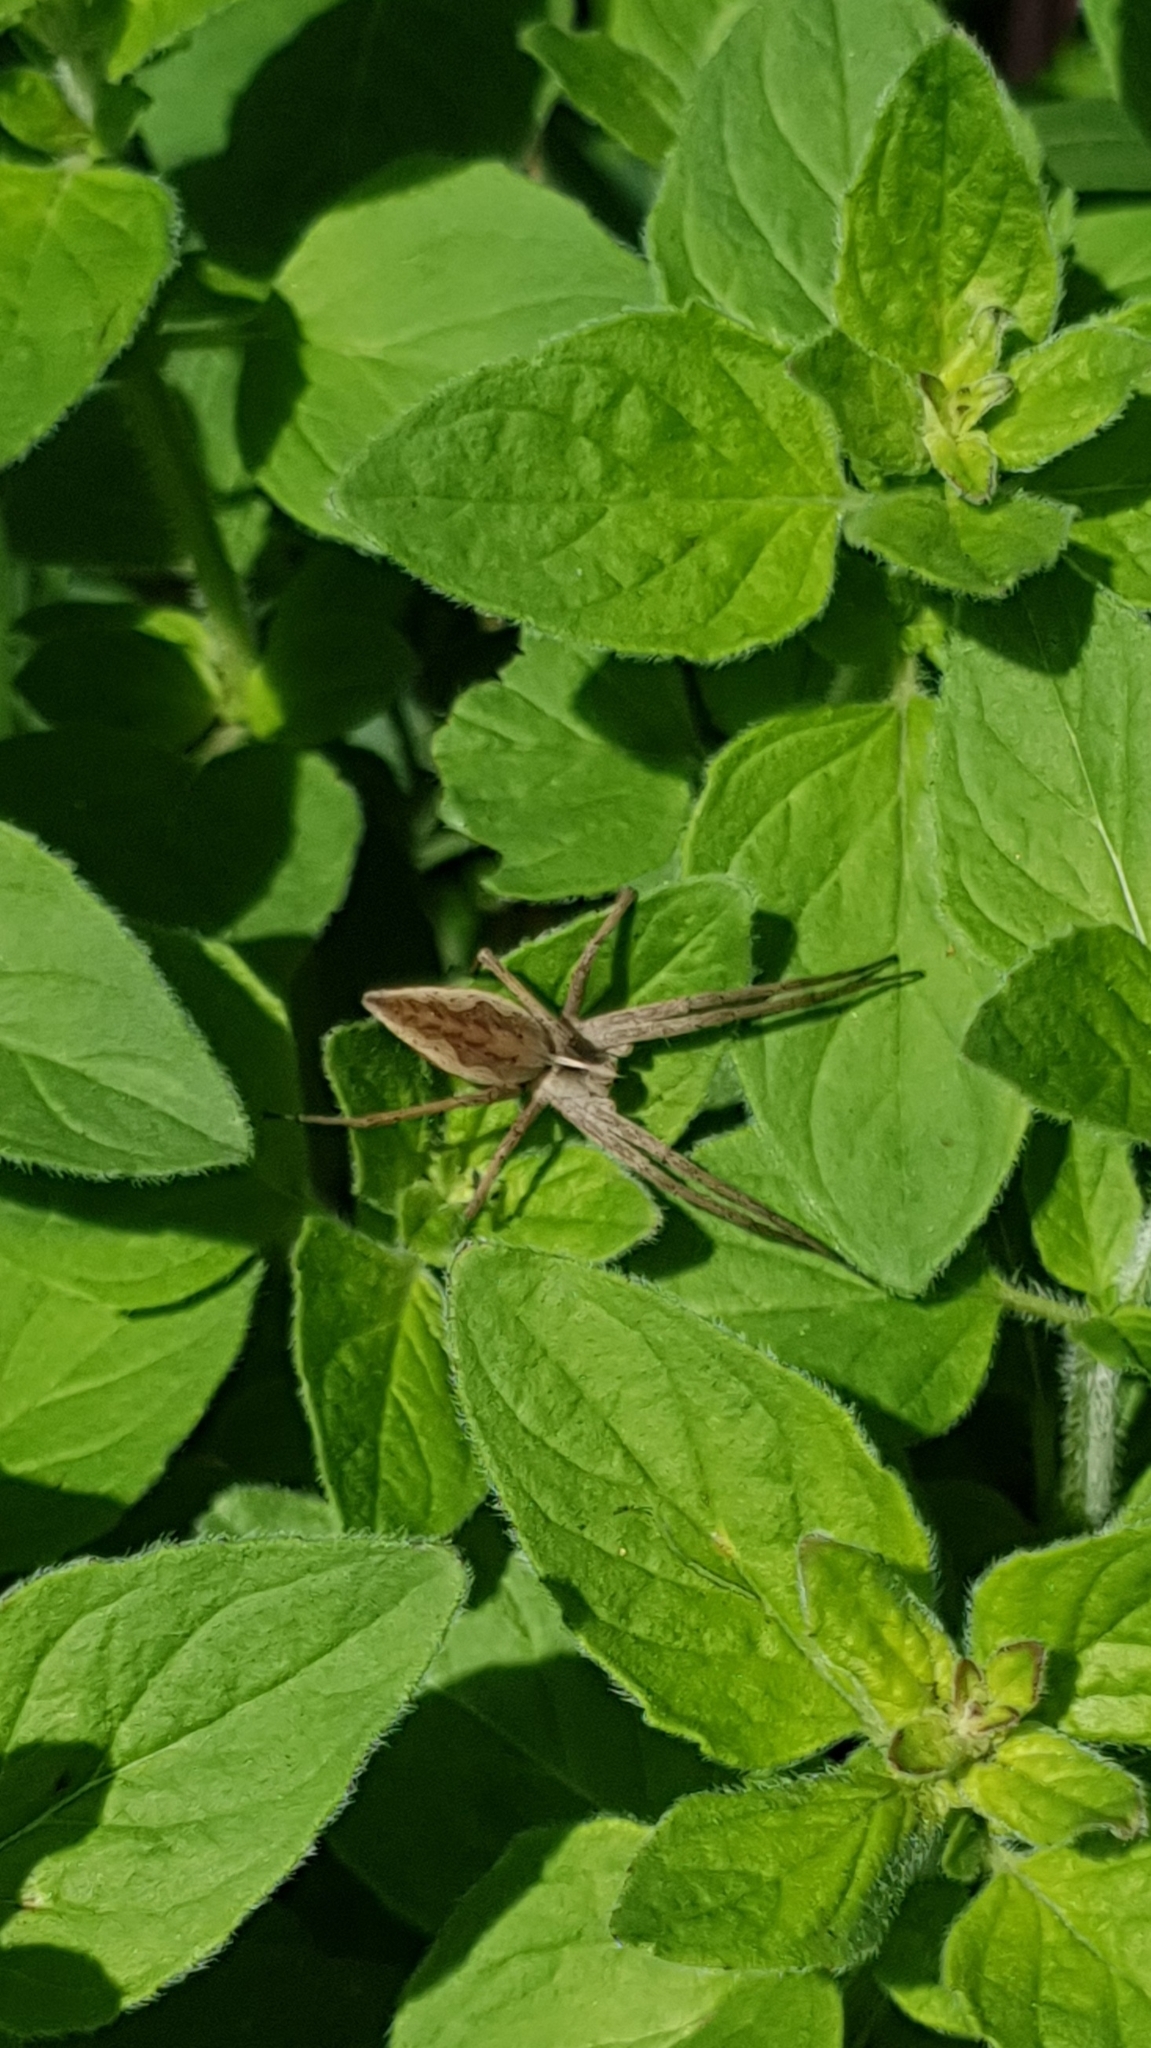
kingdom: Animalia
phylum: Arthropoda
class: Arachnida
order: Araneae
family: Pisauridae
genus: Pisaura
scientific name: Pisaura mirabilis
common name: Tent spider
